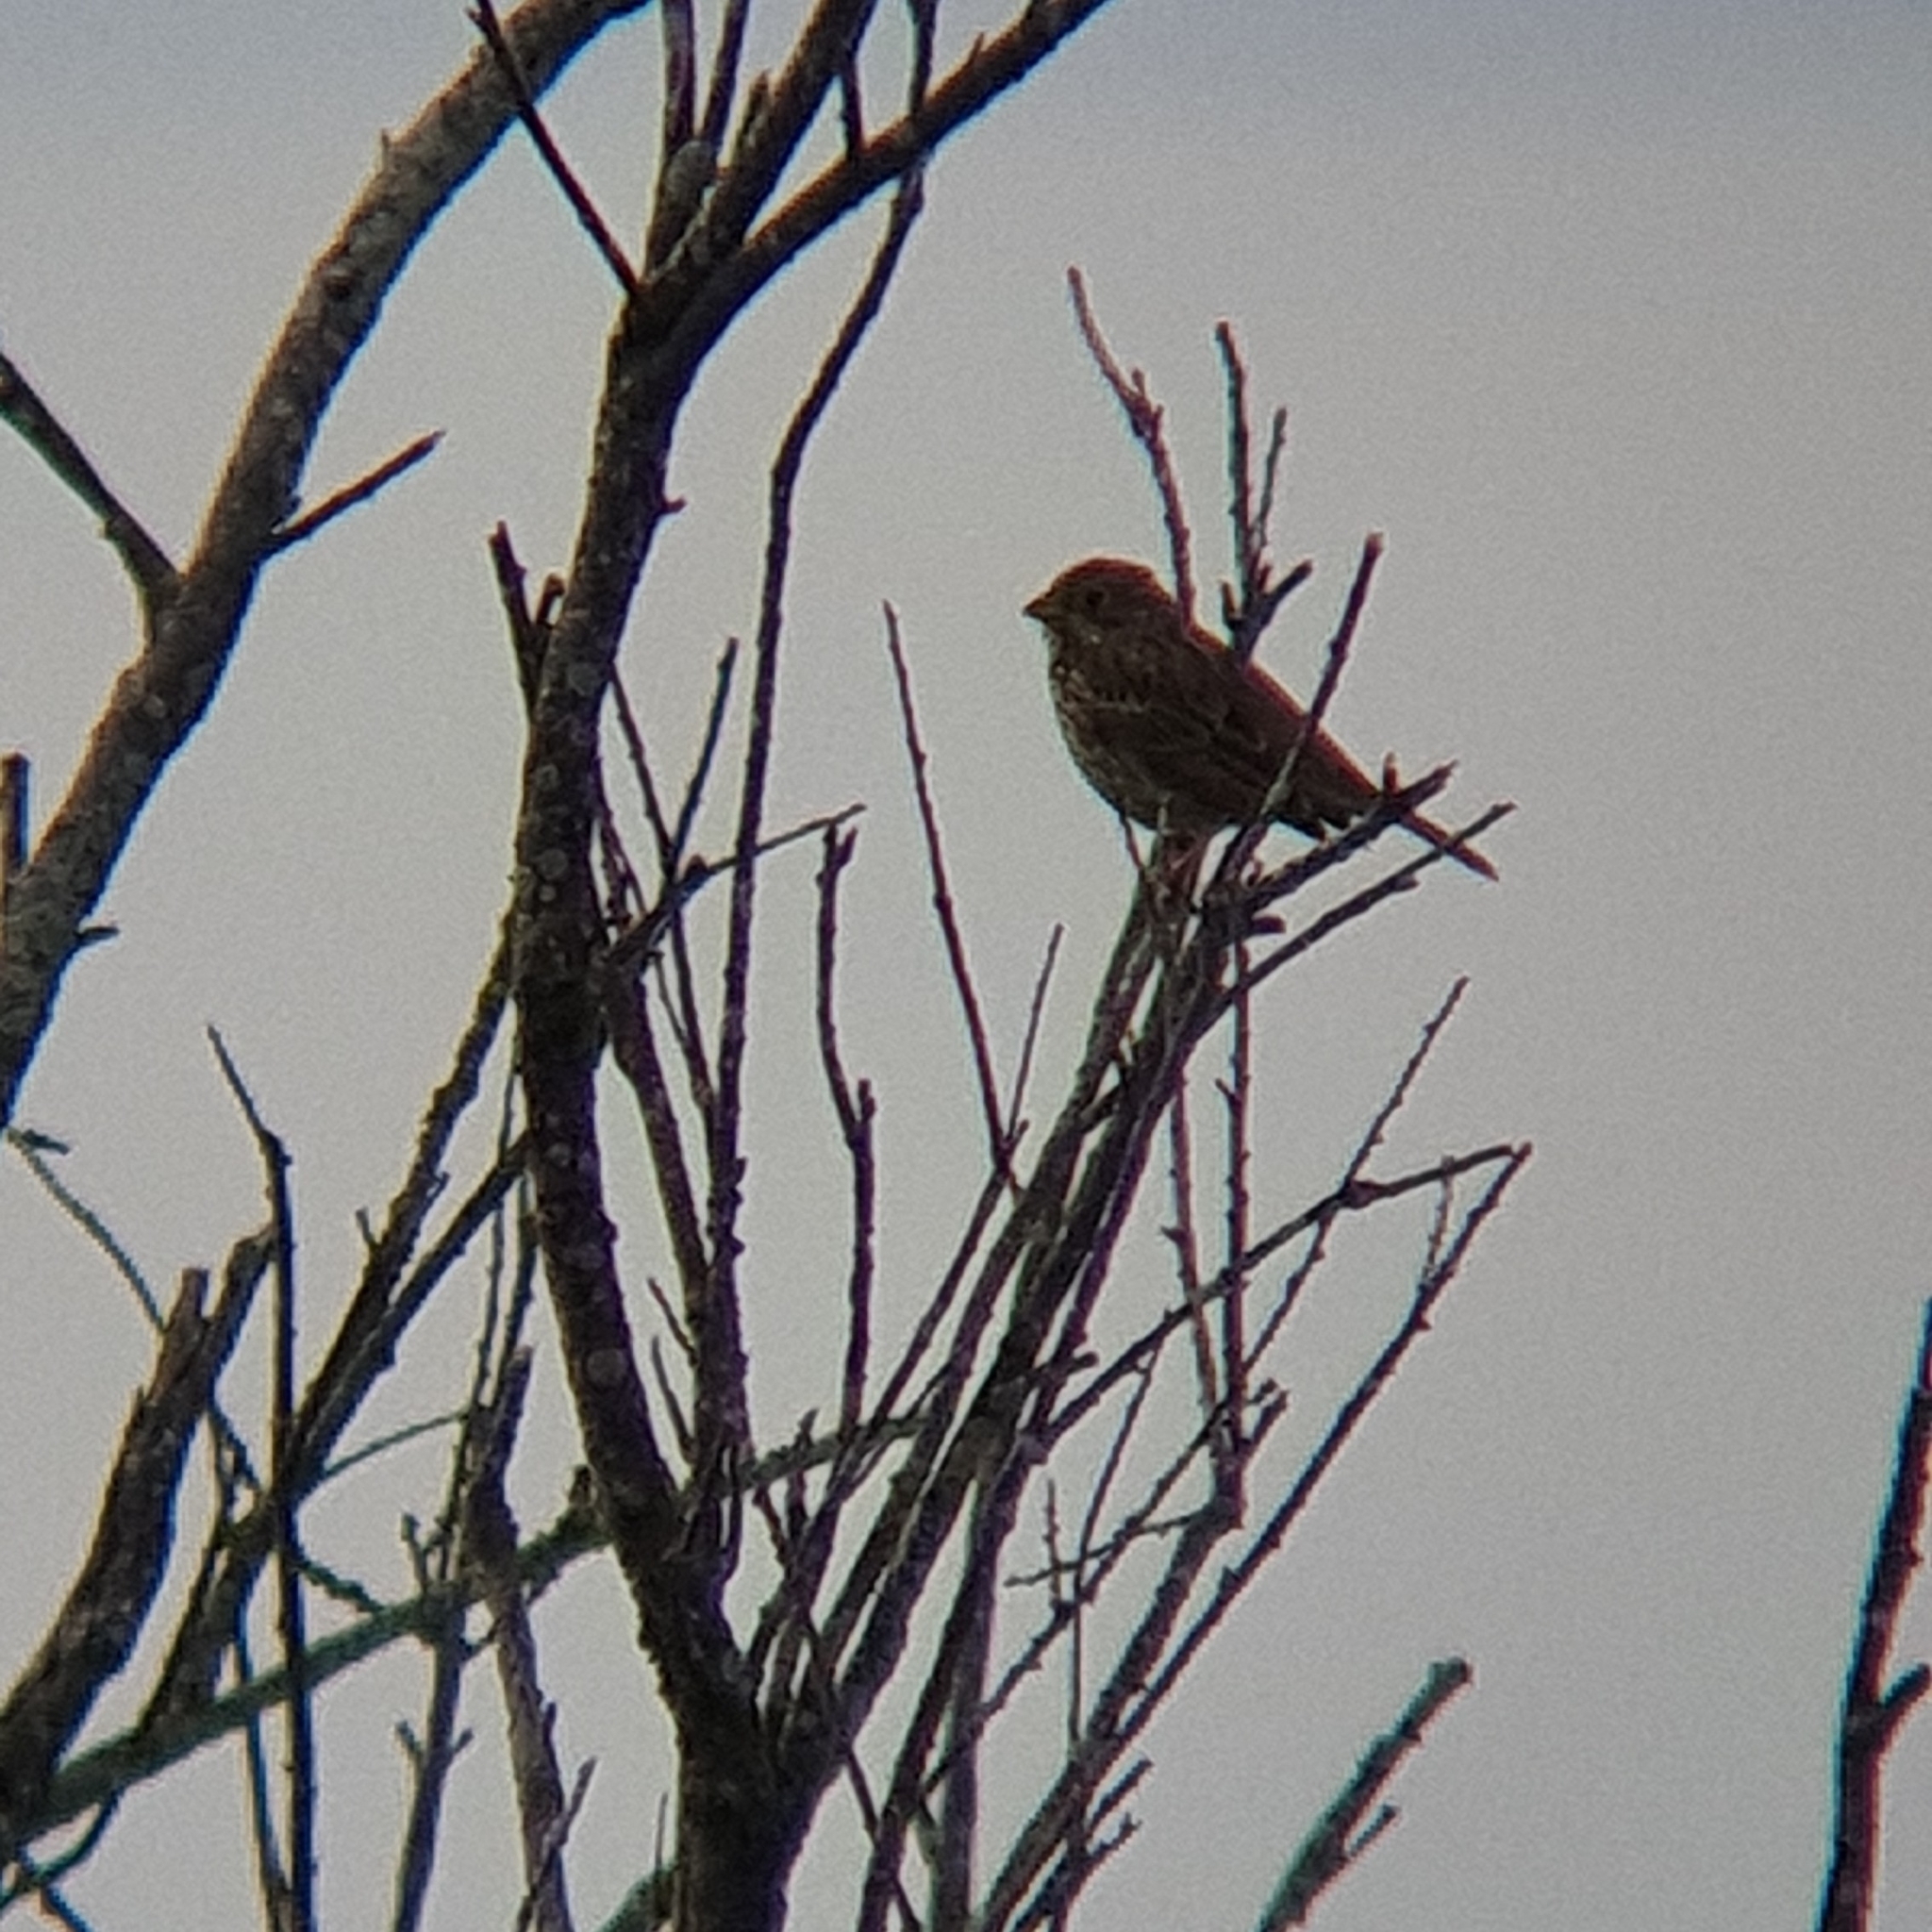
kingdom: Animalia
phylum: Chordata
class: Aves
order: Passeriformes
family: Emberizidae
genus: Emberiza
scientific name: Emberiza calandra
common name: Corn bunting
